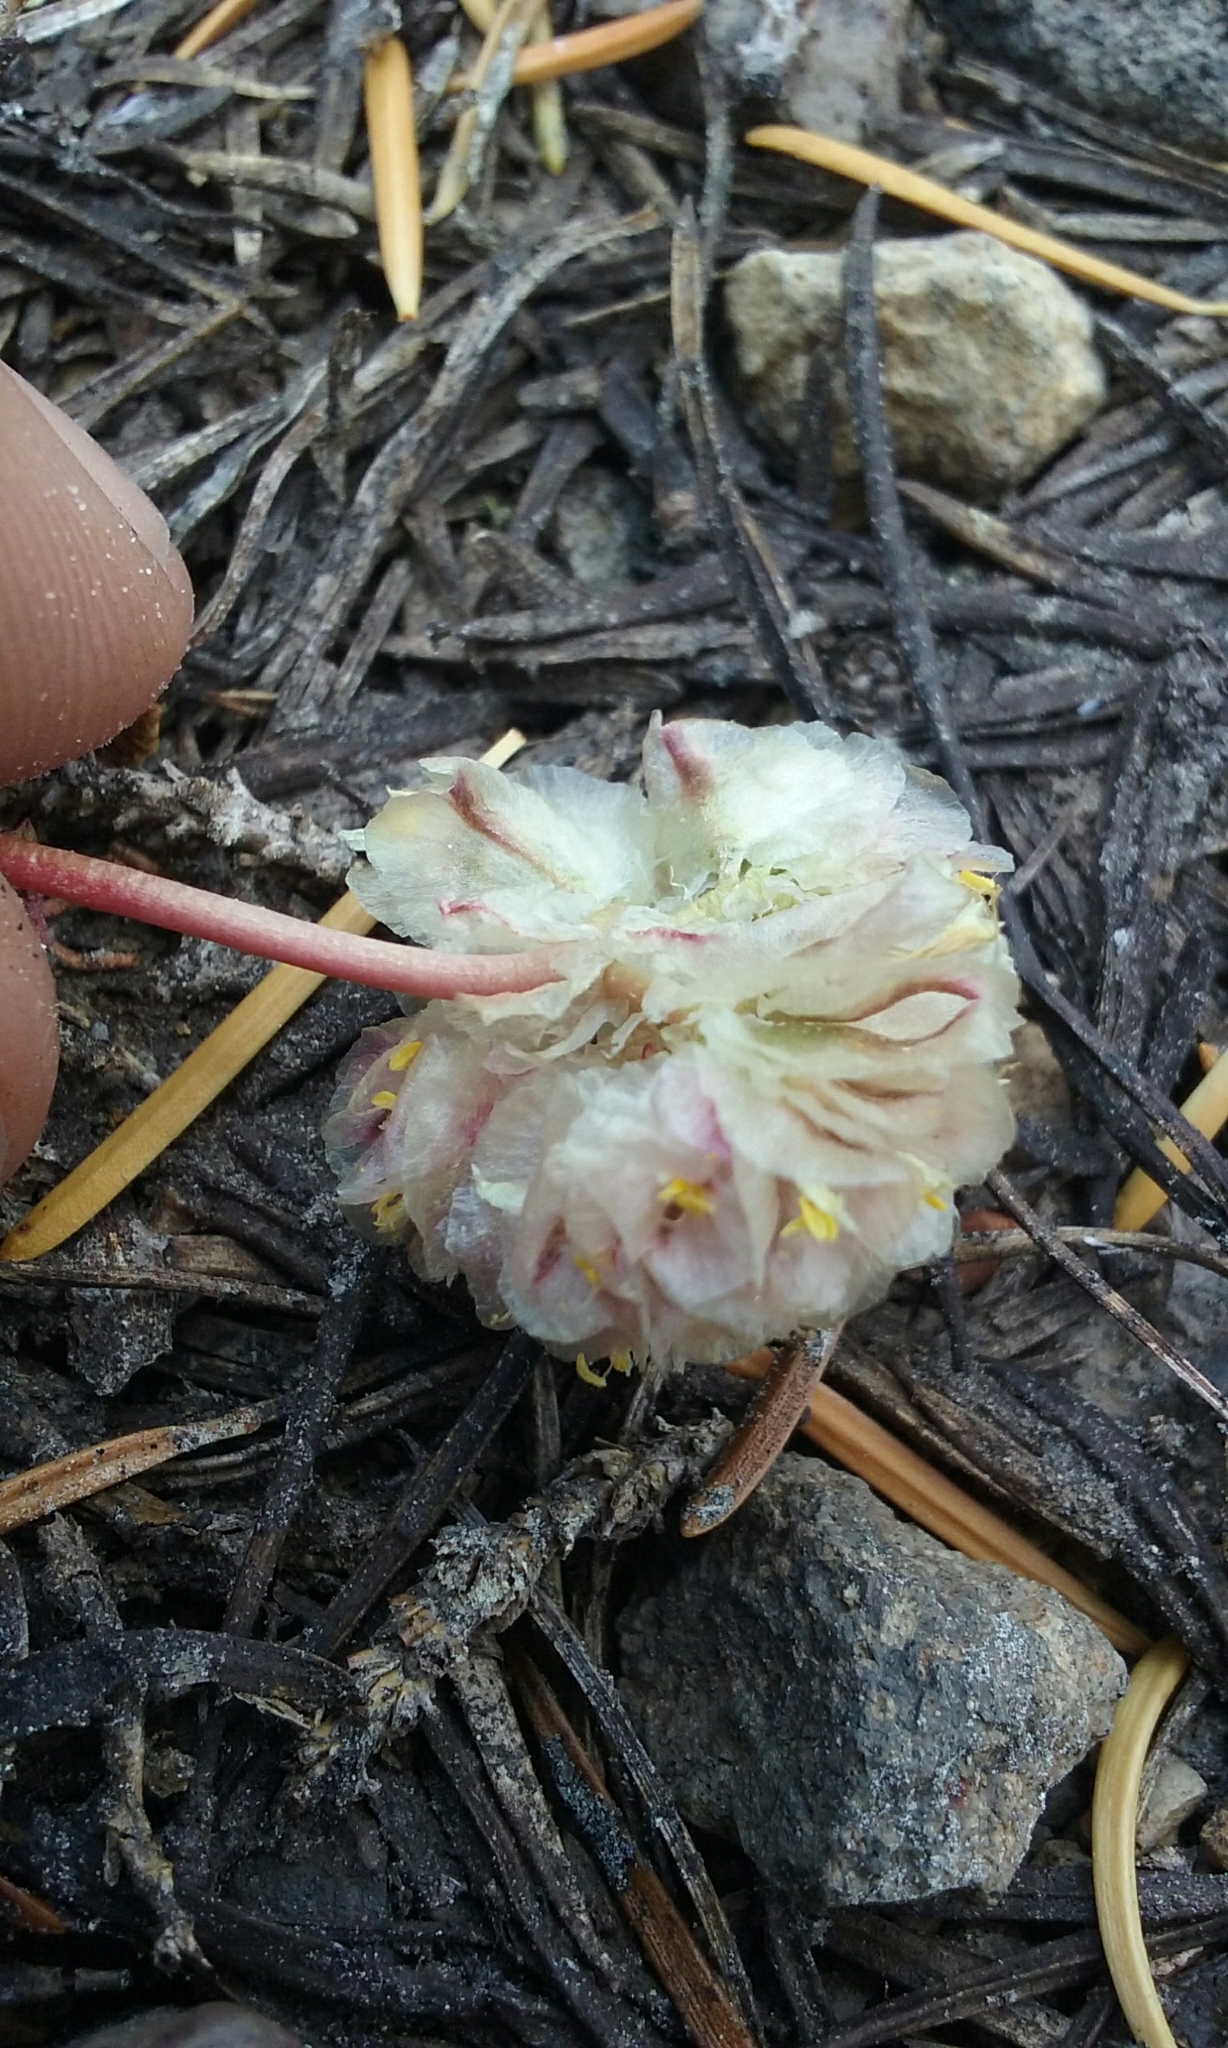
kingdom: Plantae
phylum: Tracheophyta
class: Magnoliopsida
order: Caryophyllales
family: Montiaceae
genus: Calyptridium
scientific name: Calyptridium umbellatum
